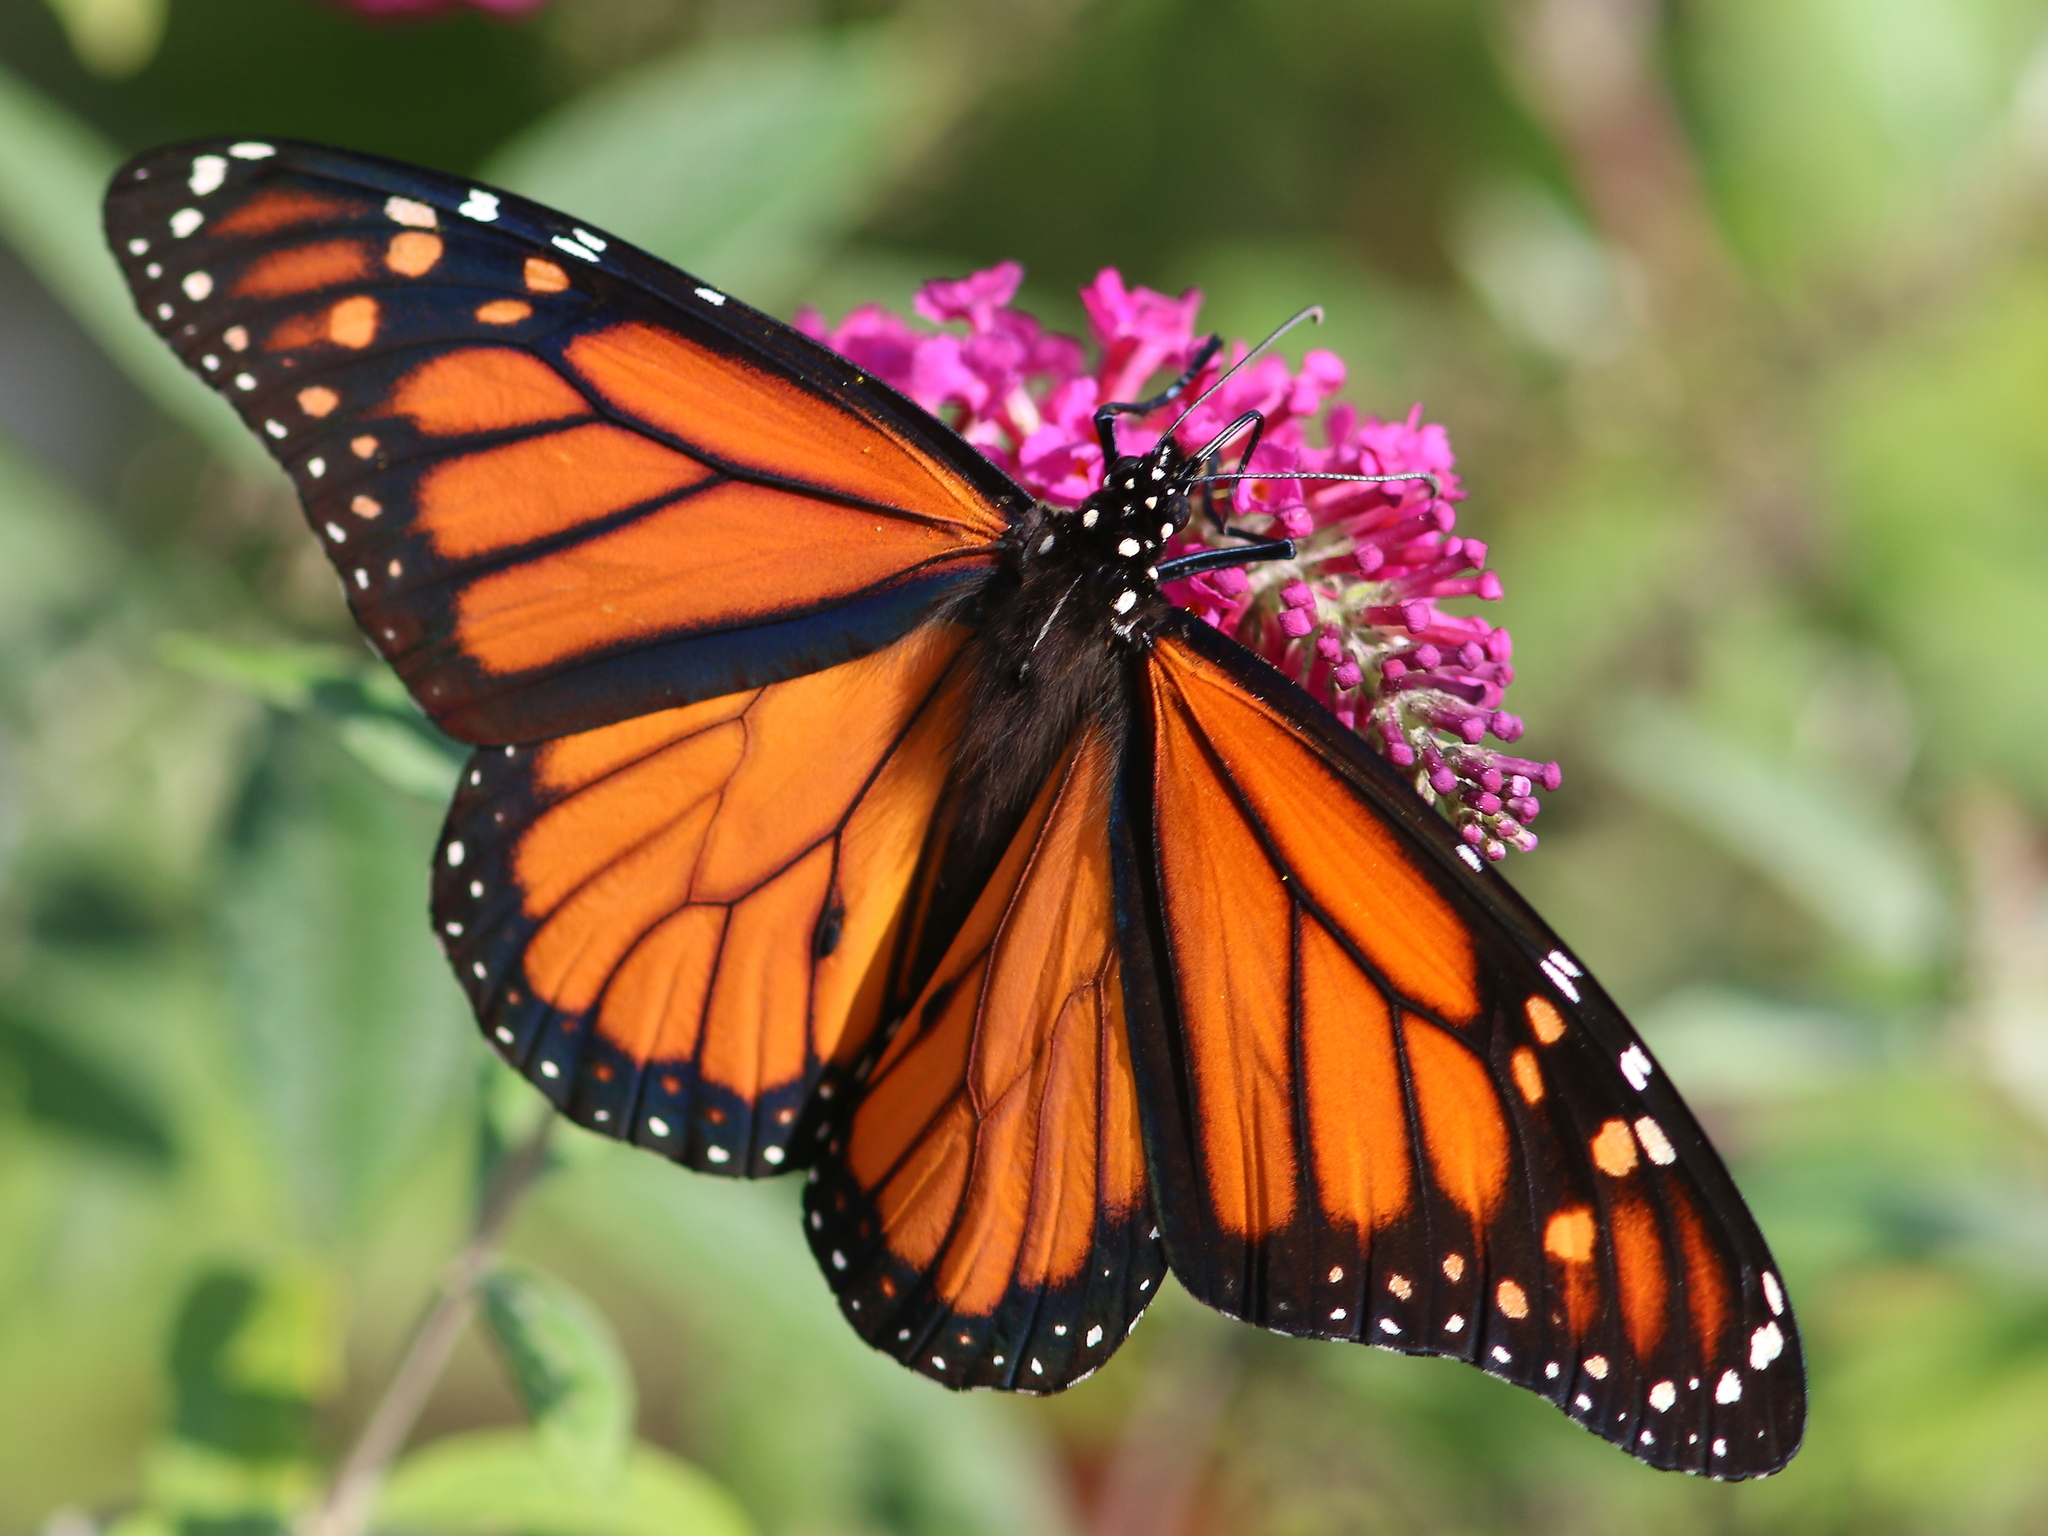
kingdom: Animalia
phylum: Arthropoda
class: Insecta
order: Lepidoptera
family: Nymphalidae
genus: Danaus
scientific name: Danaus plexippus
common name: Monarch
